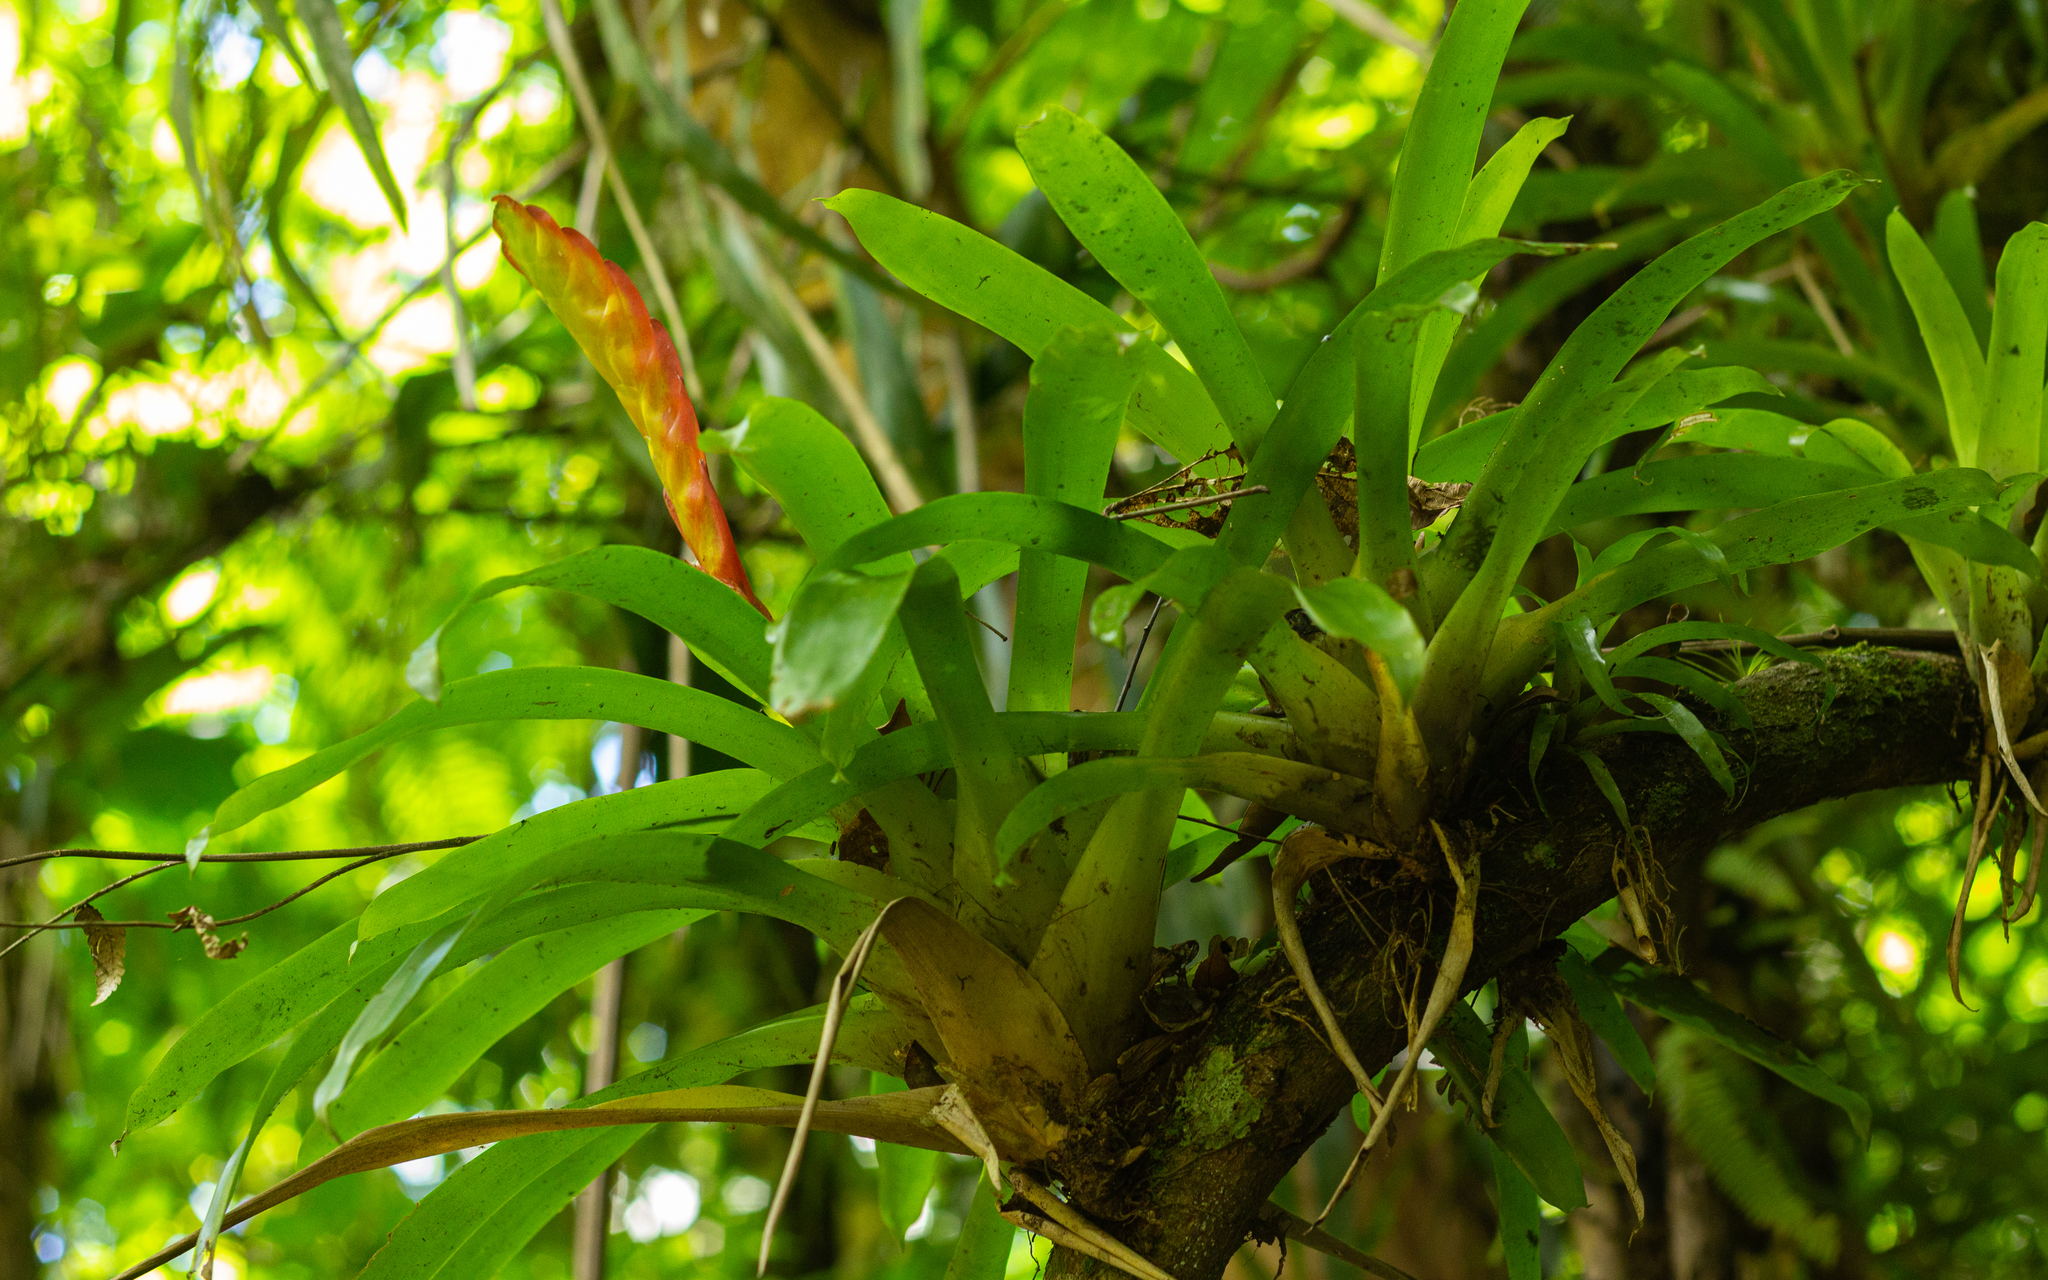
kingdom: Plantae
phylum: Tracheophyta
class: Liliopsida
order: Poales
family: Bromeliaceae
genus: Vriesea
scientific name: Vriesea incurvata
